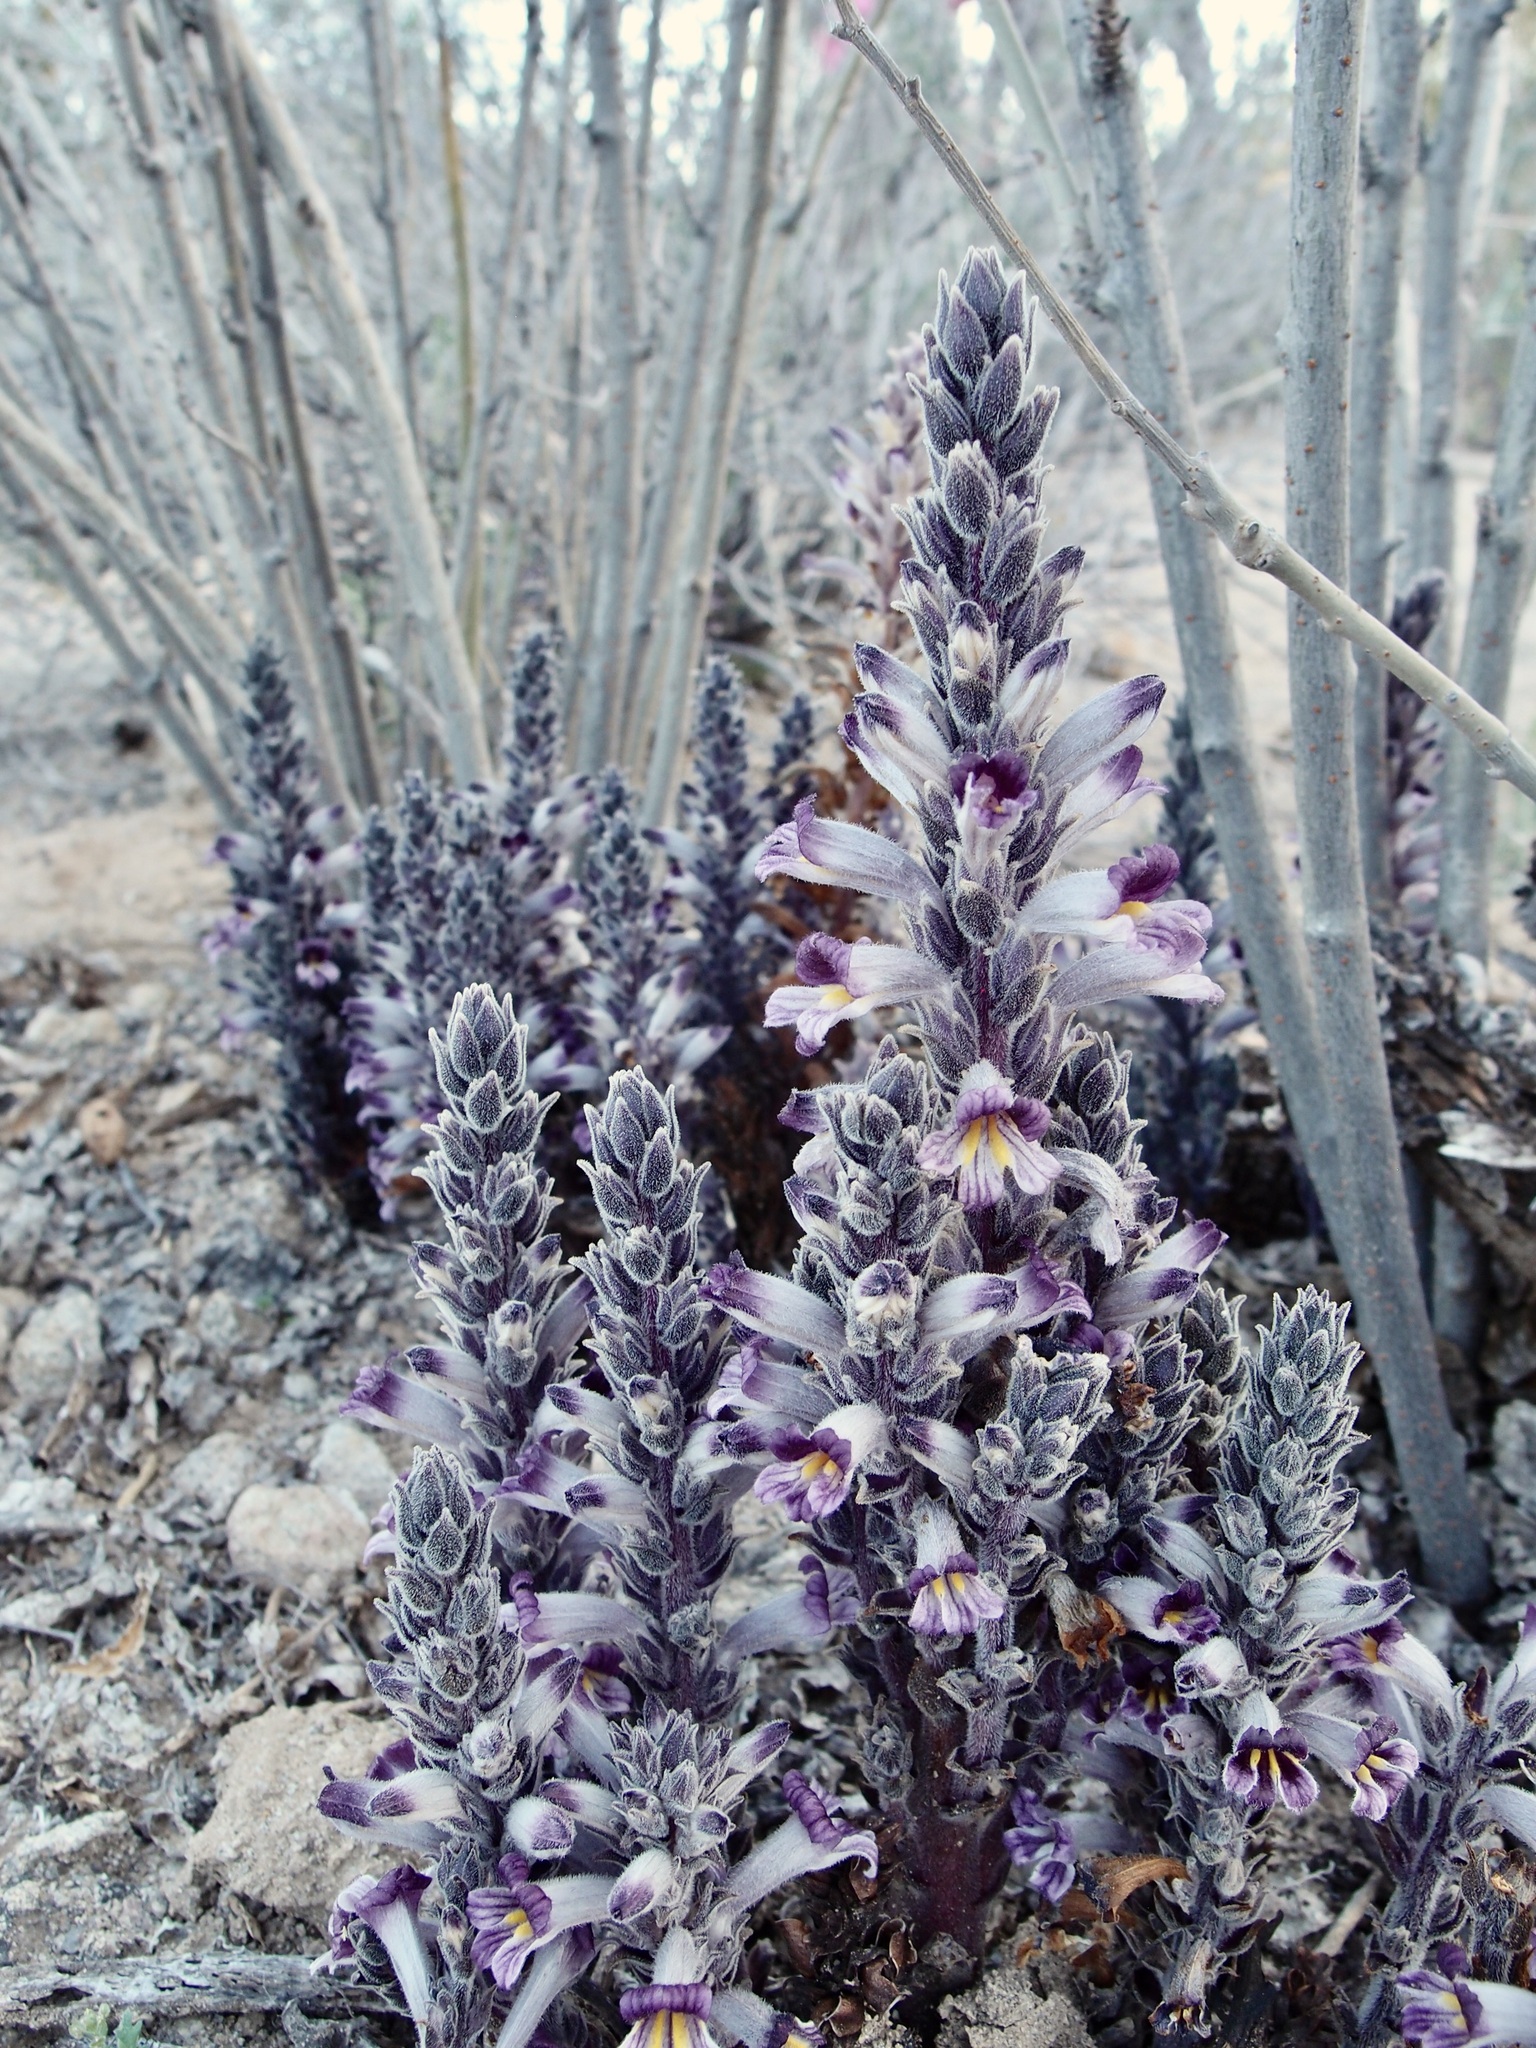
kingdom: Plantae
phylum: Tracheophyta
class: Magnoliopsida
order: Lamiales
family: Orobanchaceae
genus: Aphyllon
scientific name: Aphyllon cooperi
